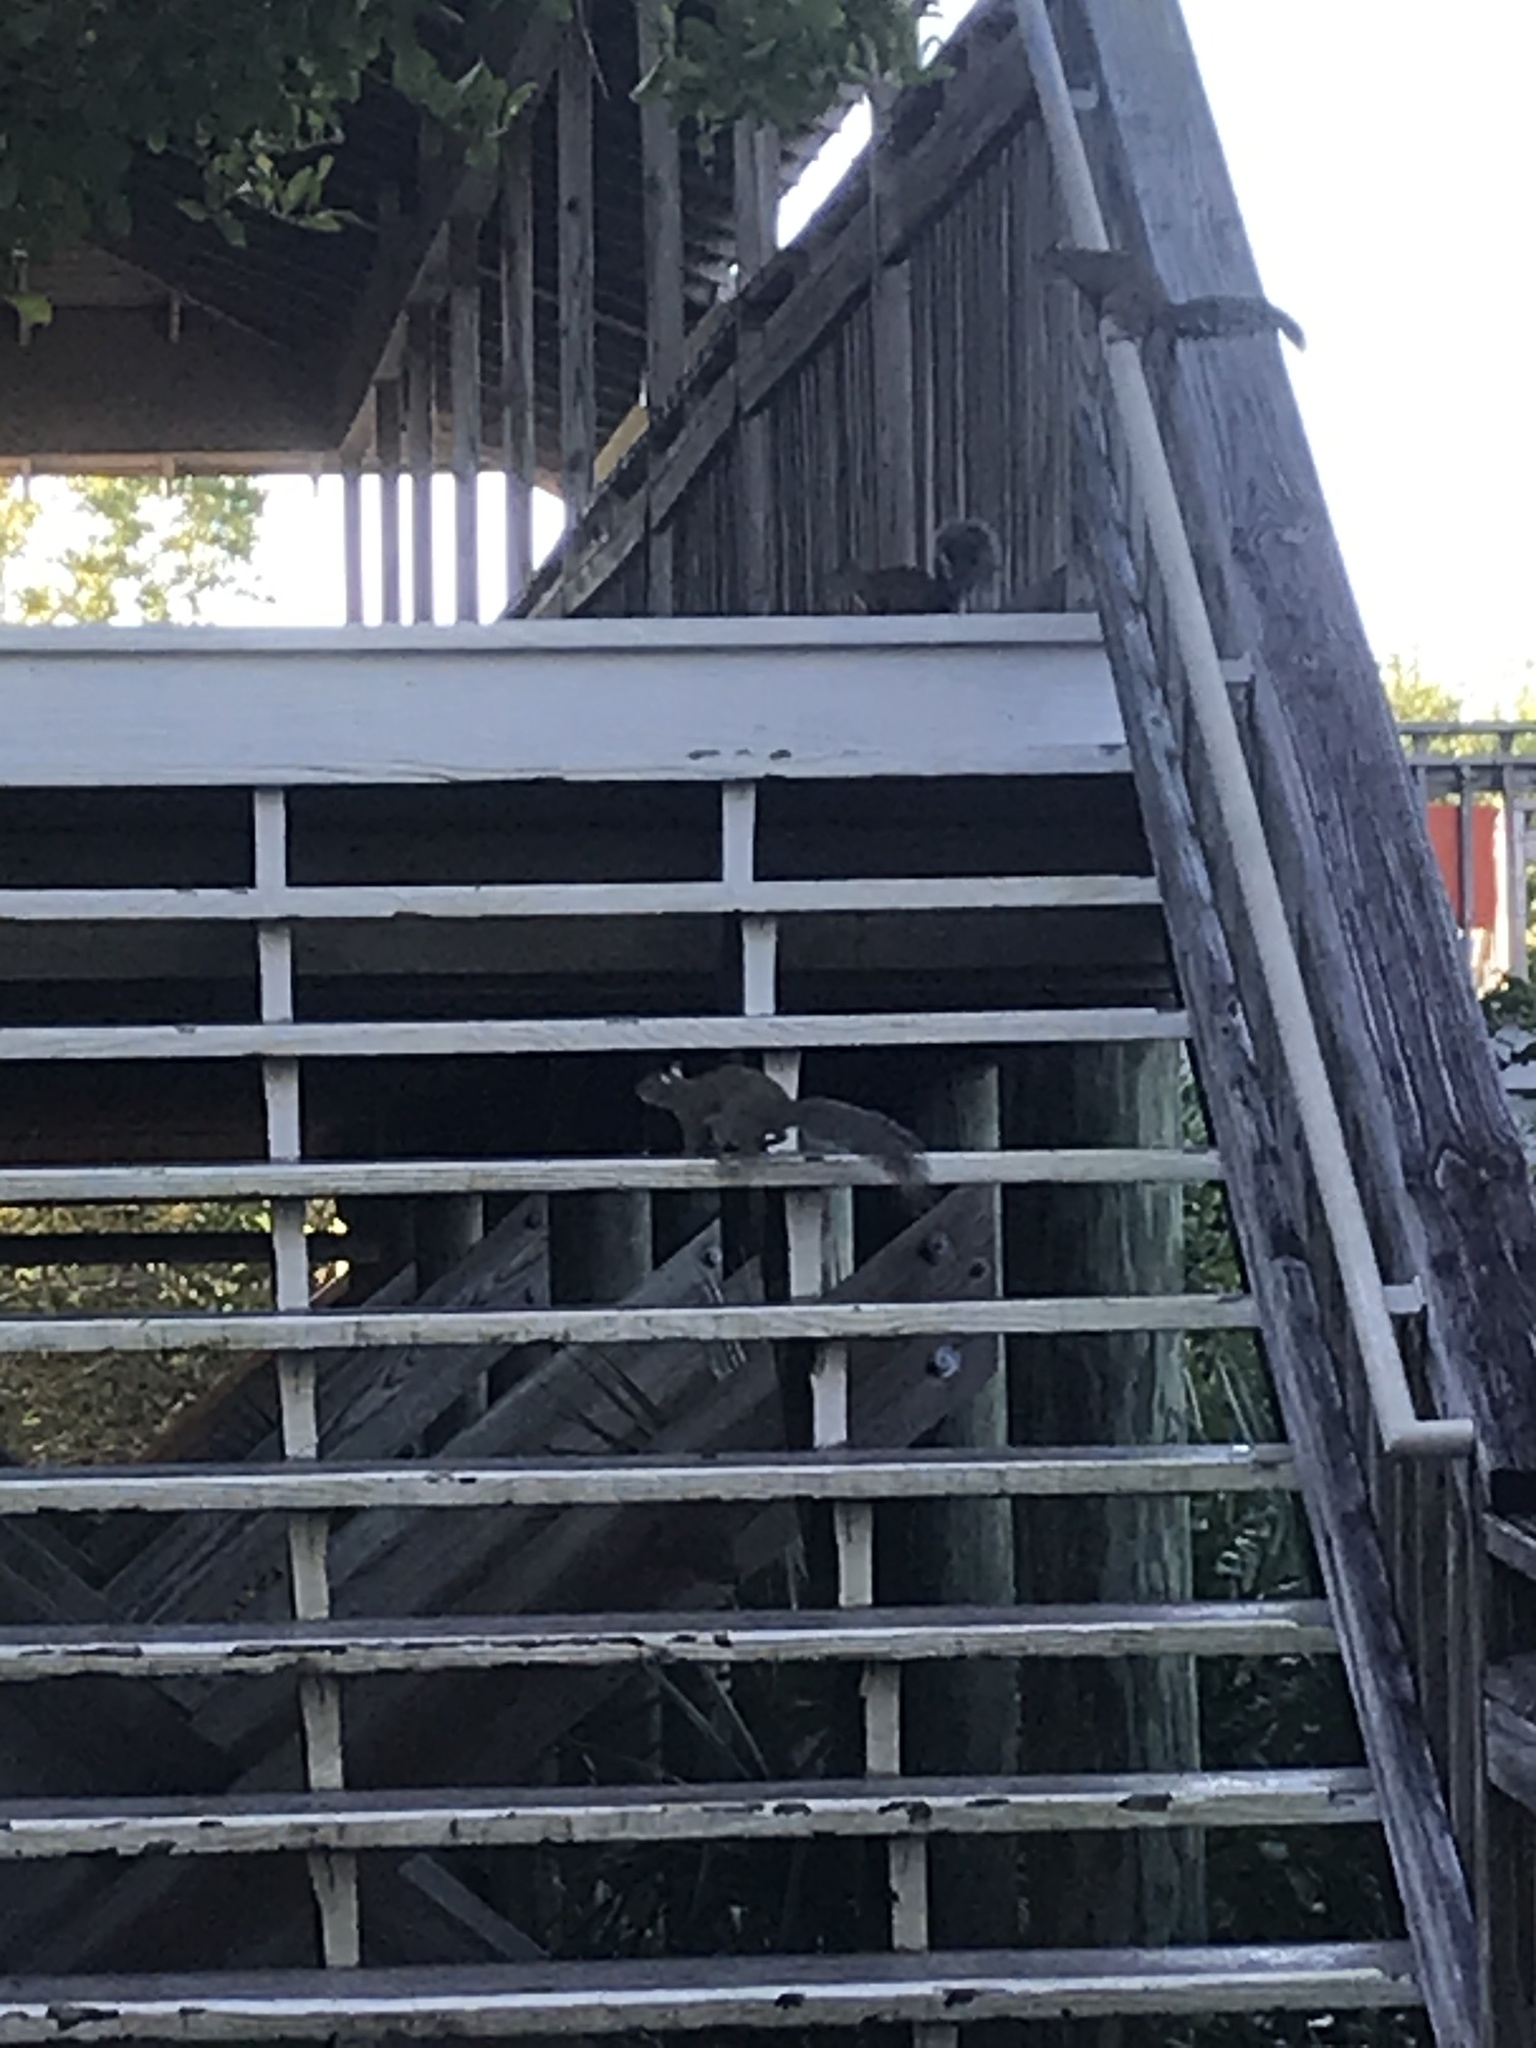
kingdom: Animalia
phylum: Chordata
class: Mammalia
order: Rodentia
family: Sciuridae
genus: Sciurus
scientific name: Sciurus carolinensis
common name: Eastern gray squirrel
